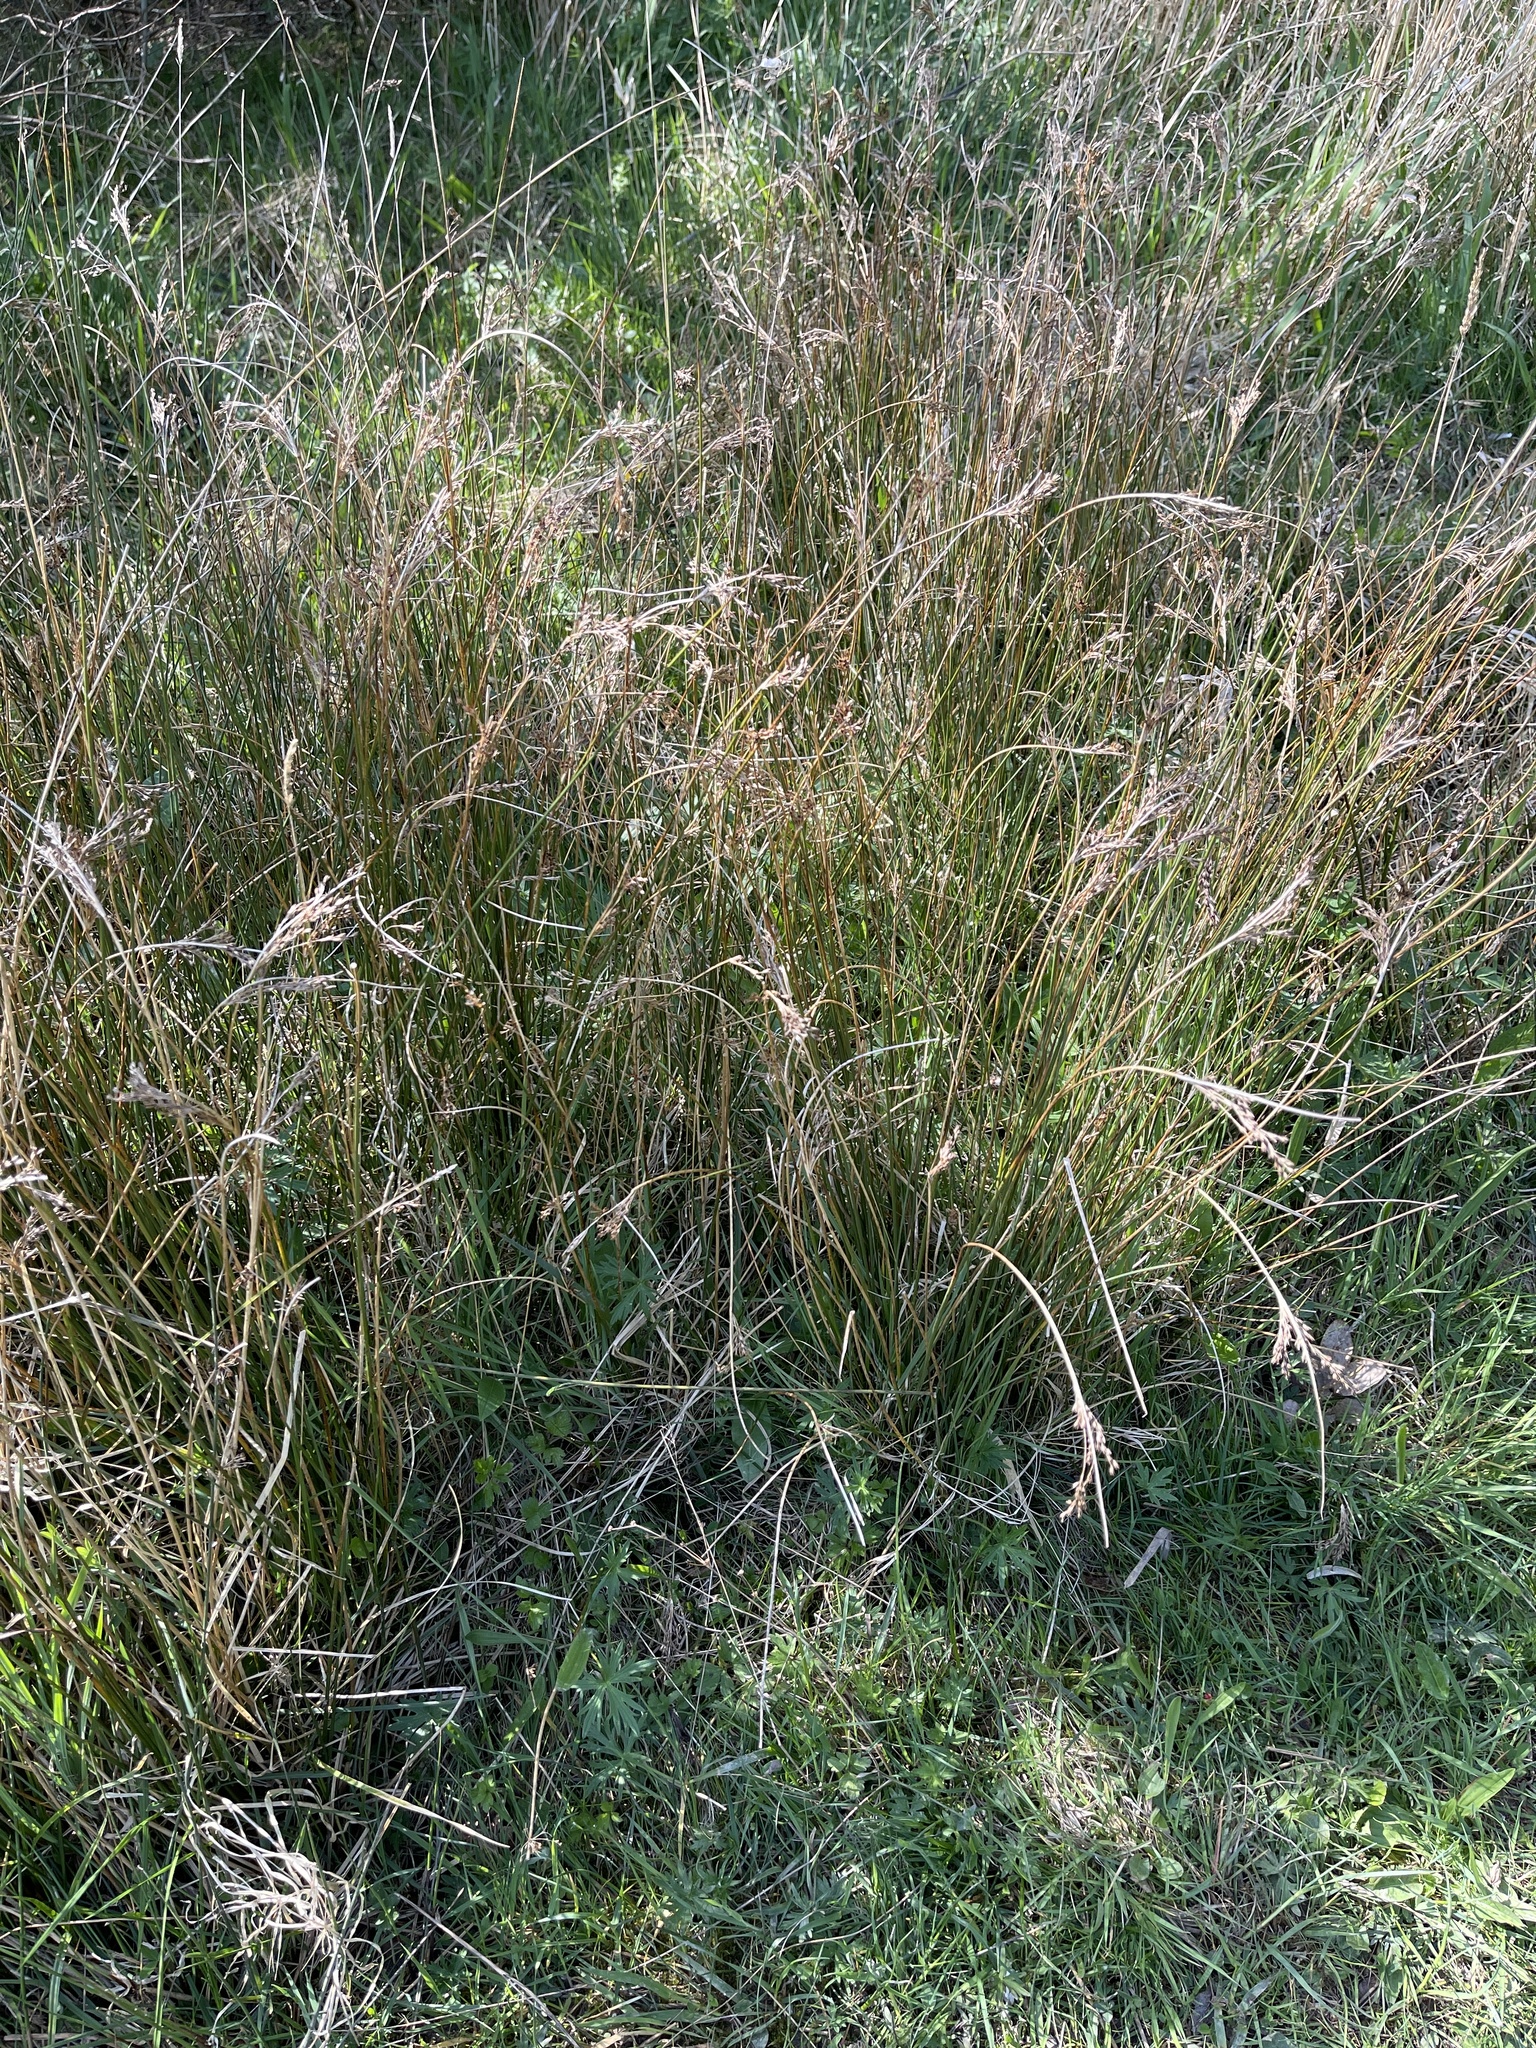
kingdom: Plantae
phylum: Tracheophyta
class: Liliopsida
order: Poales
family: Juncaceae
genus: Juncus
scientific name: Juncus inflexus
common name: Hard rush
